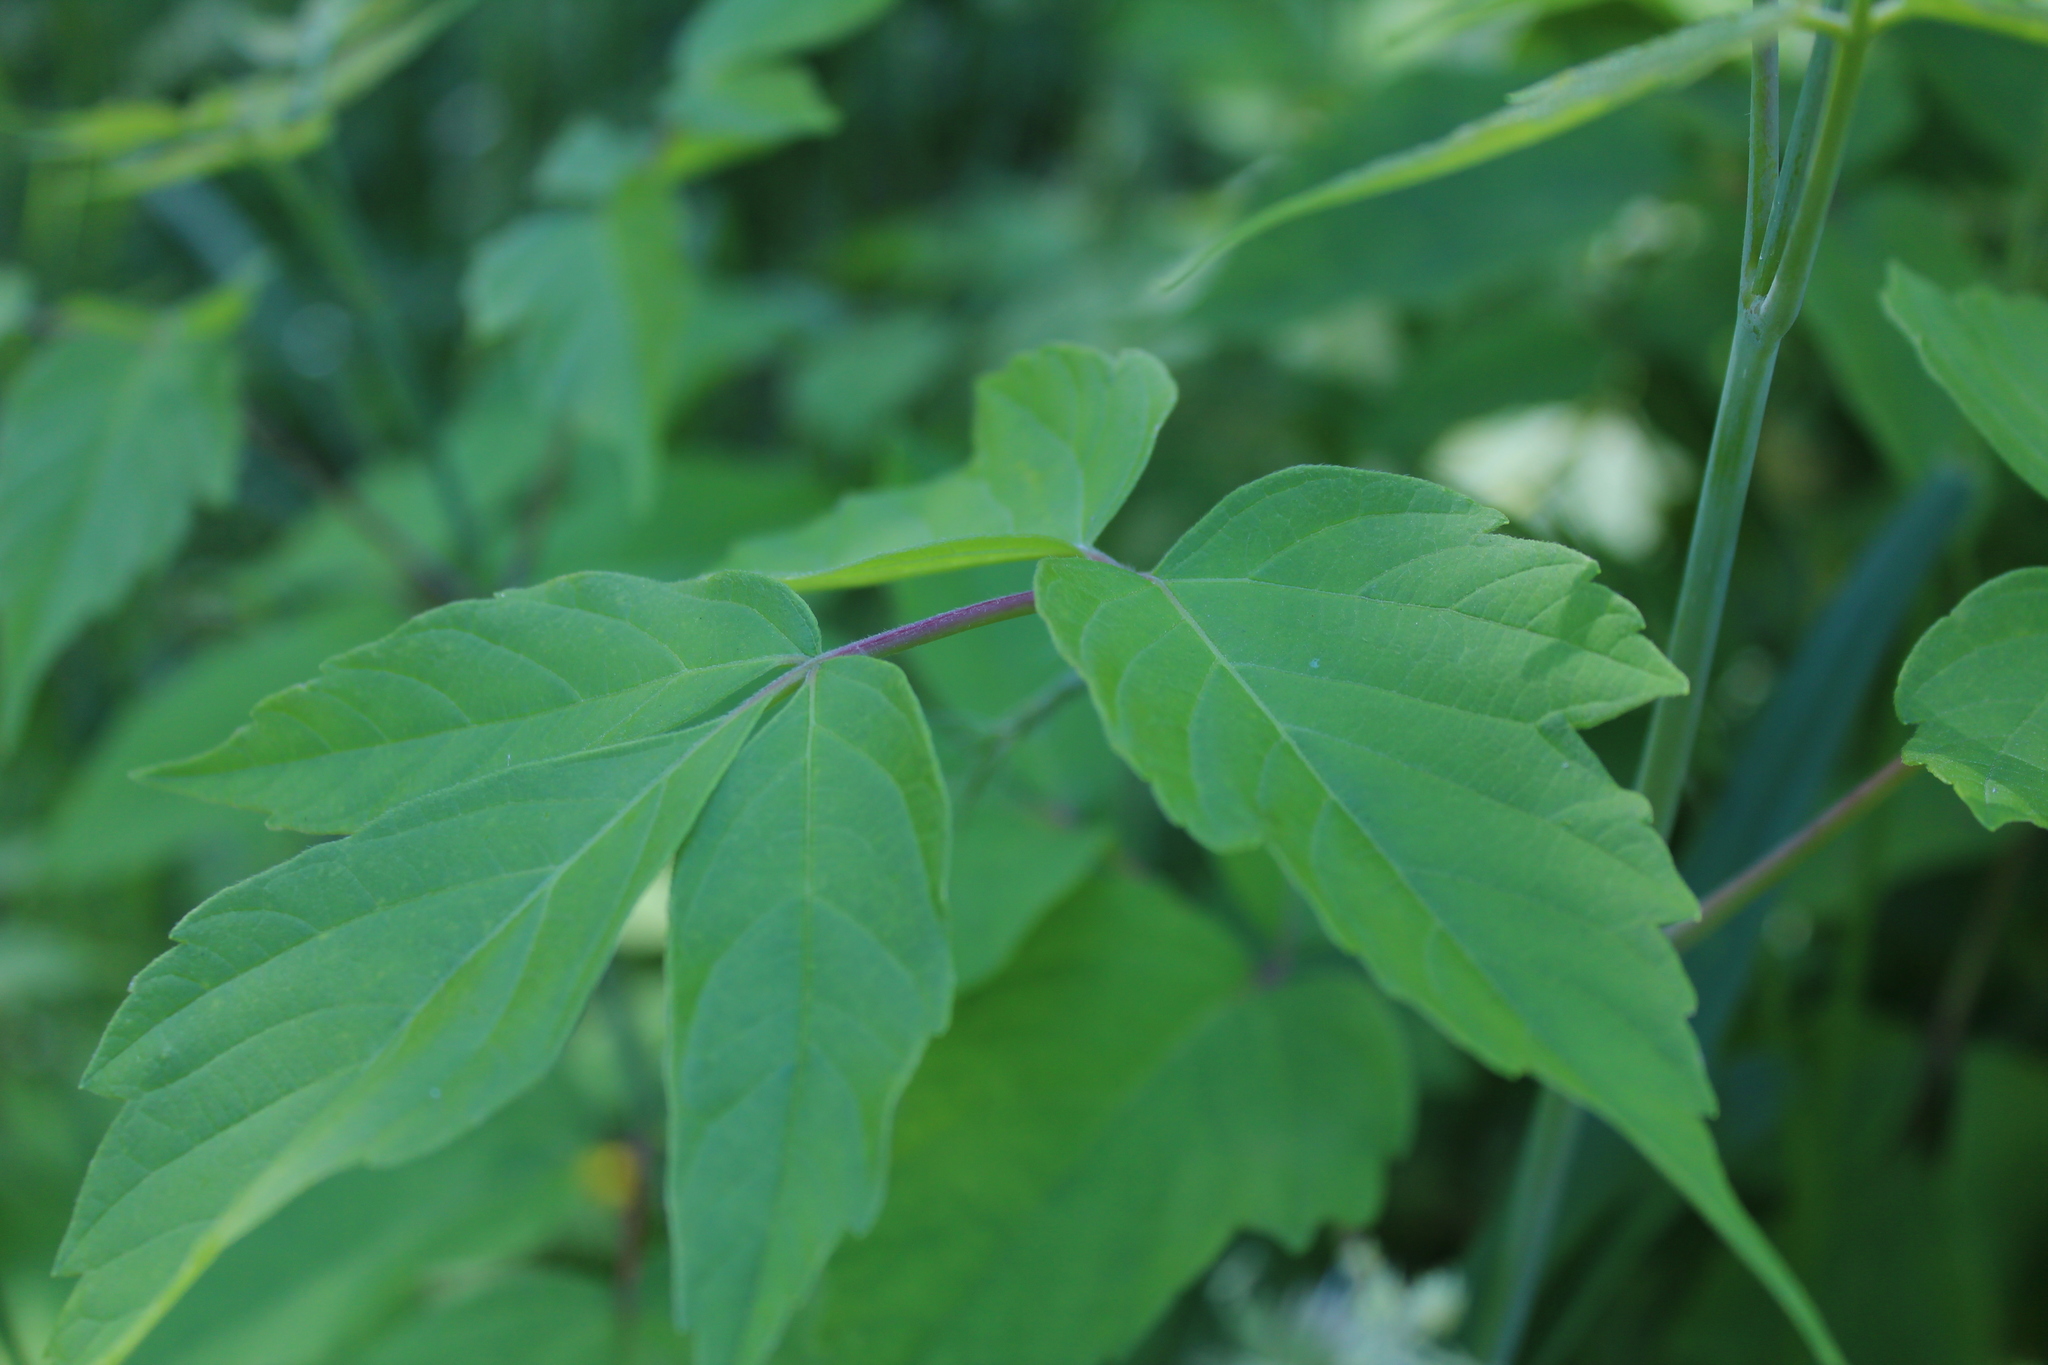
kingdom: Plantae
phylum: Tracheophyta
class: Magnoliopsida
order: Sapindales
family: Sapindaceae
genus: Acer
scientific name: Acer negundo
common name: Ashleaf maple
